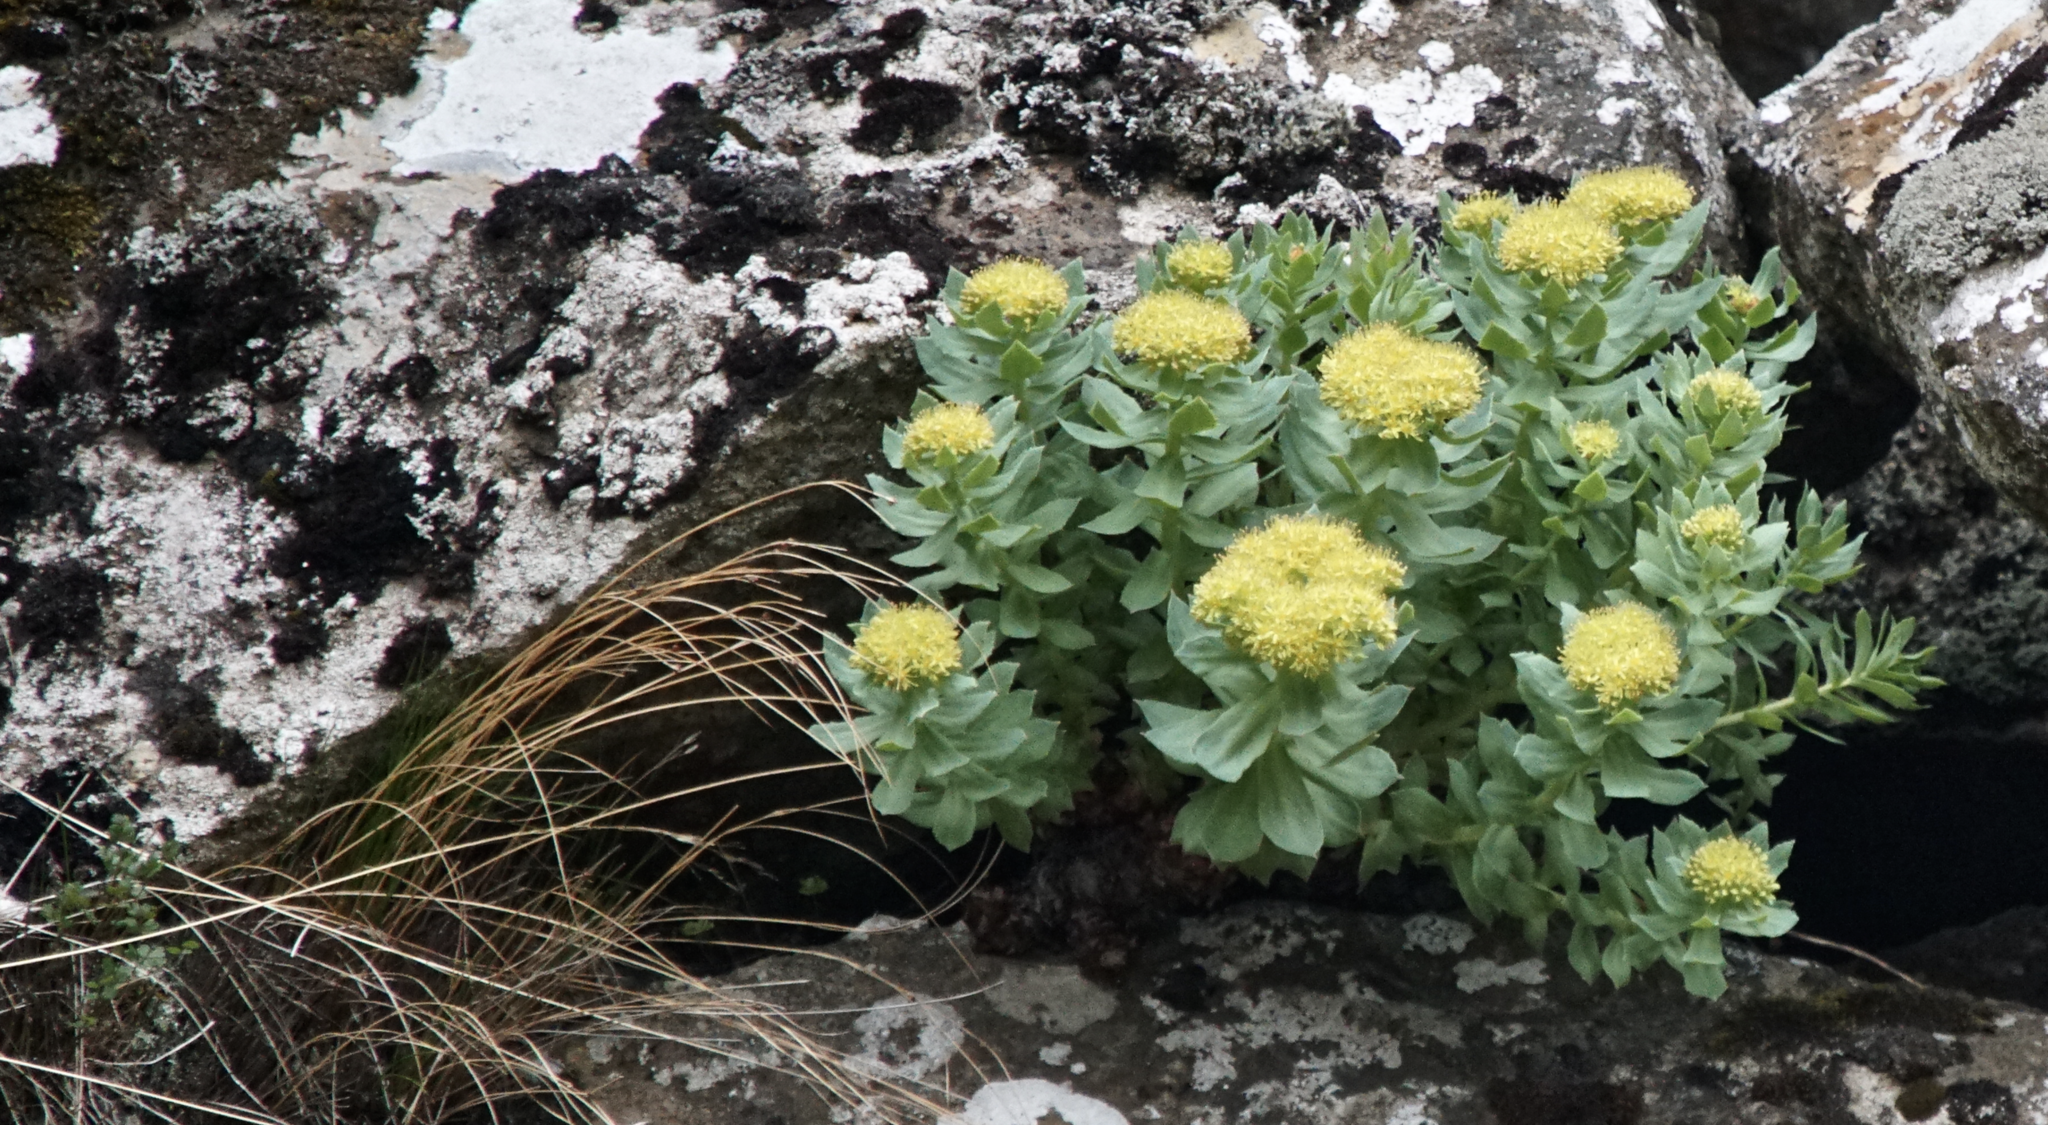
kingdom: Plantae
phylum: Tracheophyta
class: Magnoliopsida
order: Saxifragales
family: Crassulaceae
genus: Rhodiola
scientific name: Rhodiola rosea
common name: Roseroot
